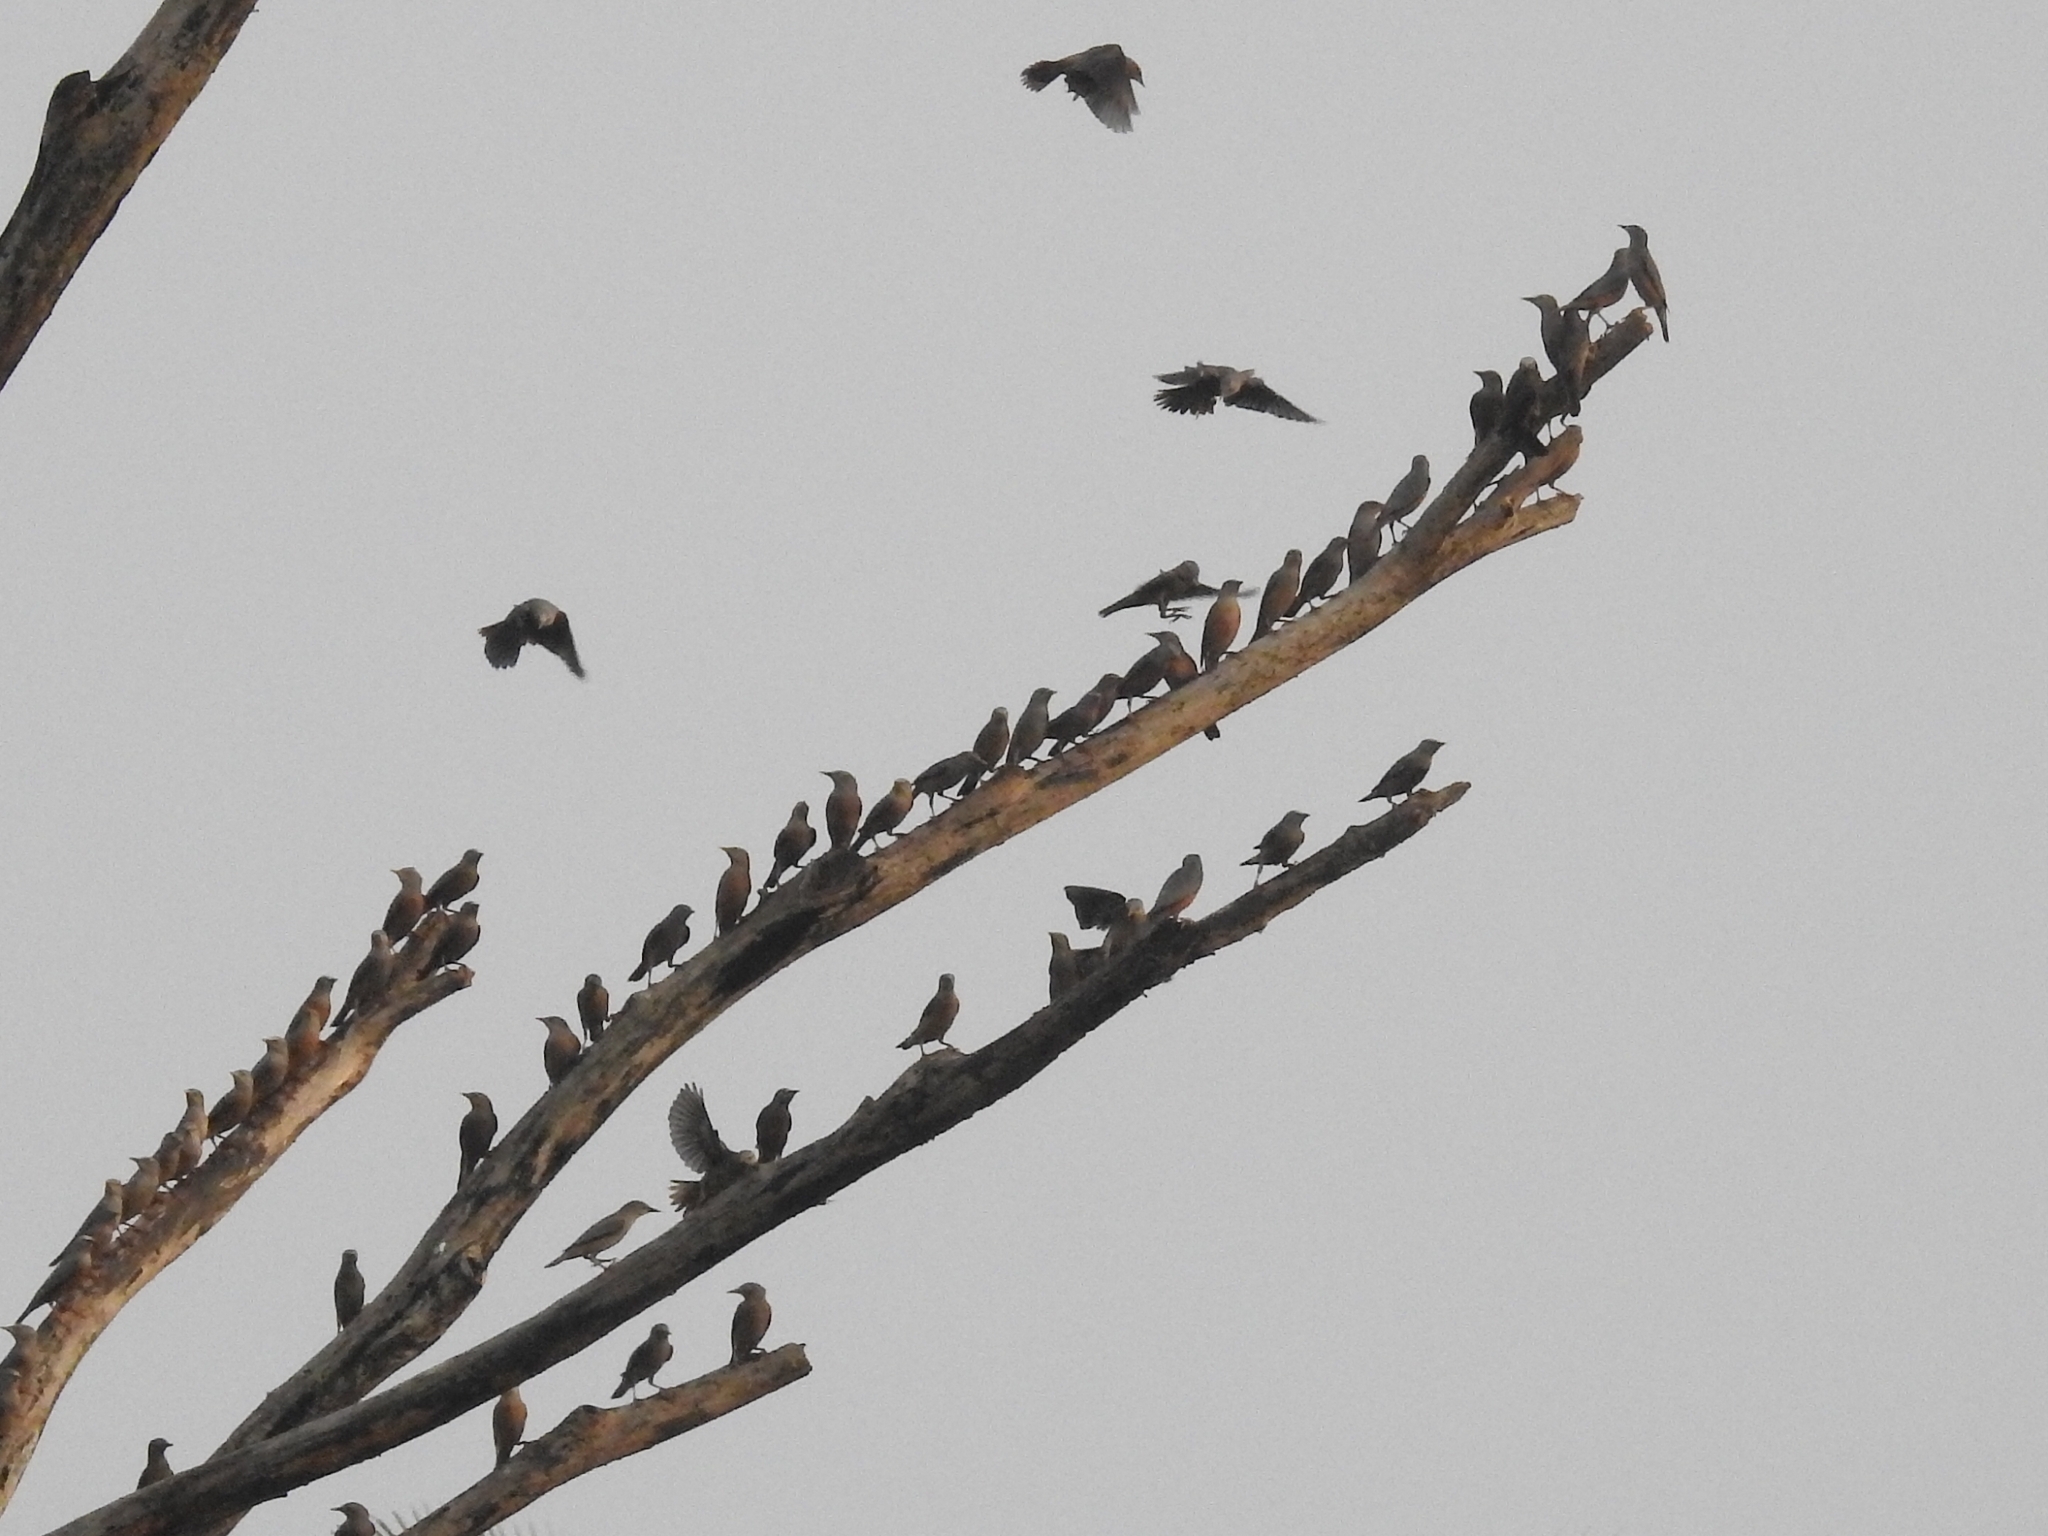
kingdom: Animalia
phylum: Chordata
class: Aves
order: Passeriformes
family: Sturnidae
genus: Sturnia
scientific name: Sturnia malabarica
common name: Chestnut-tailed starling
